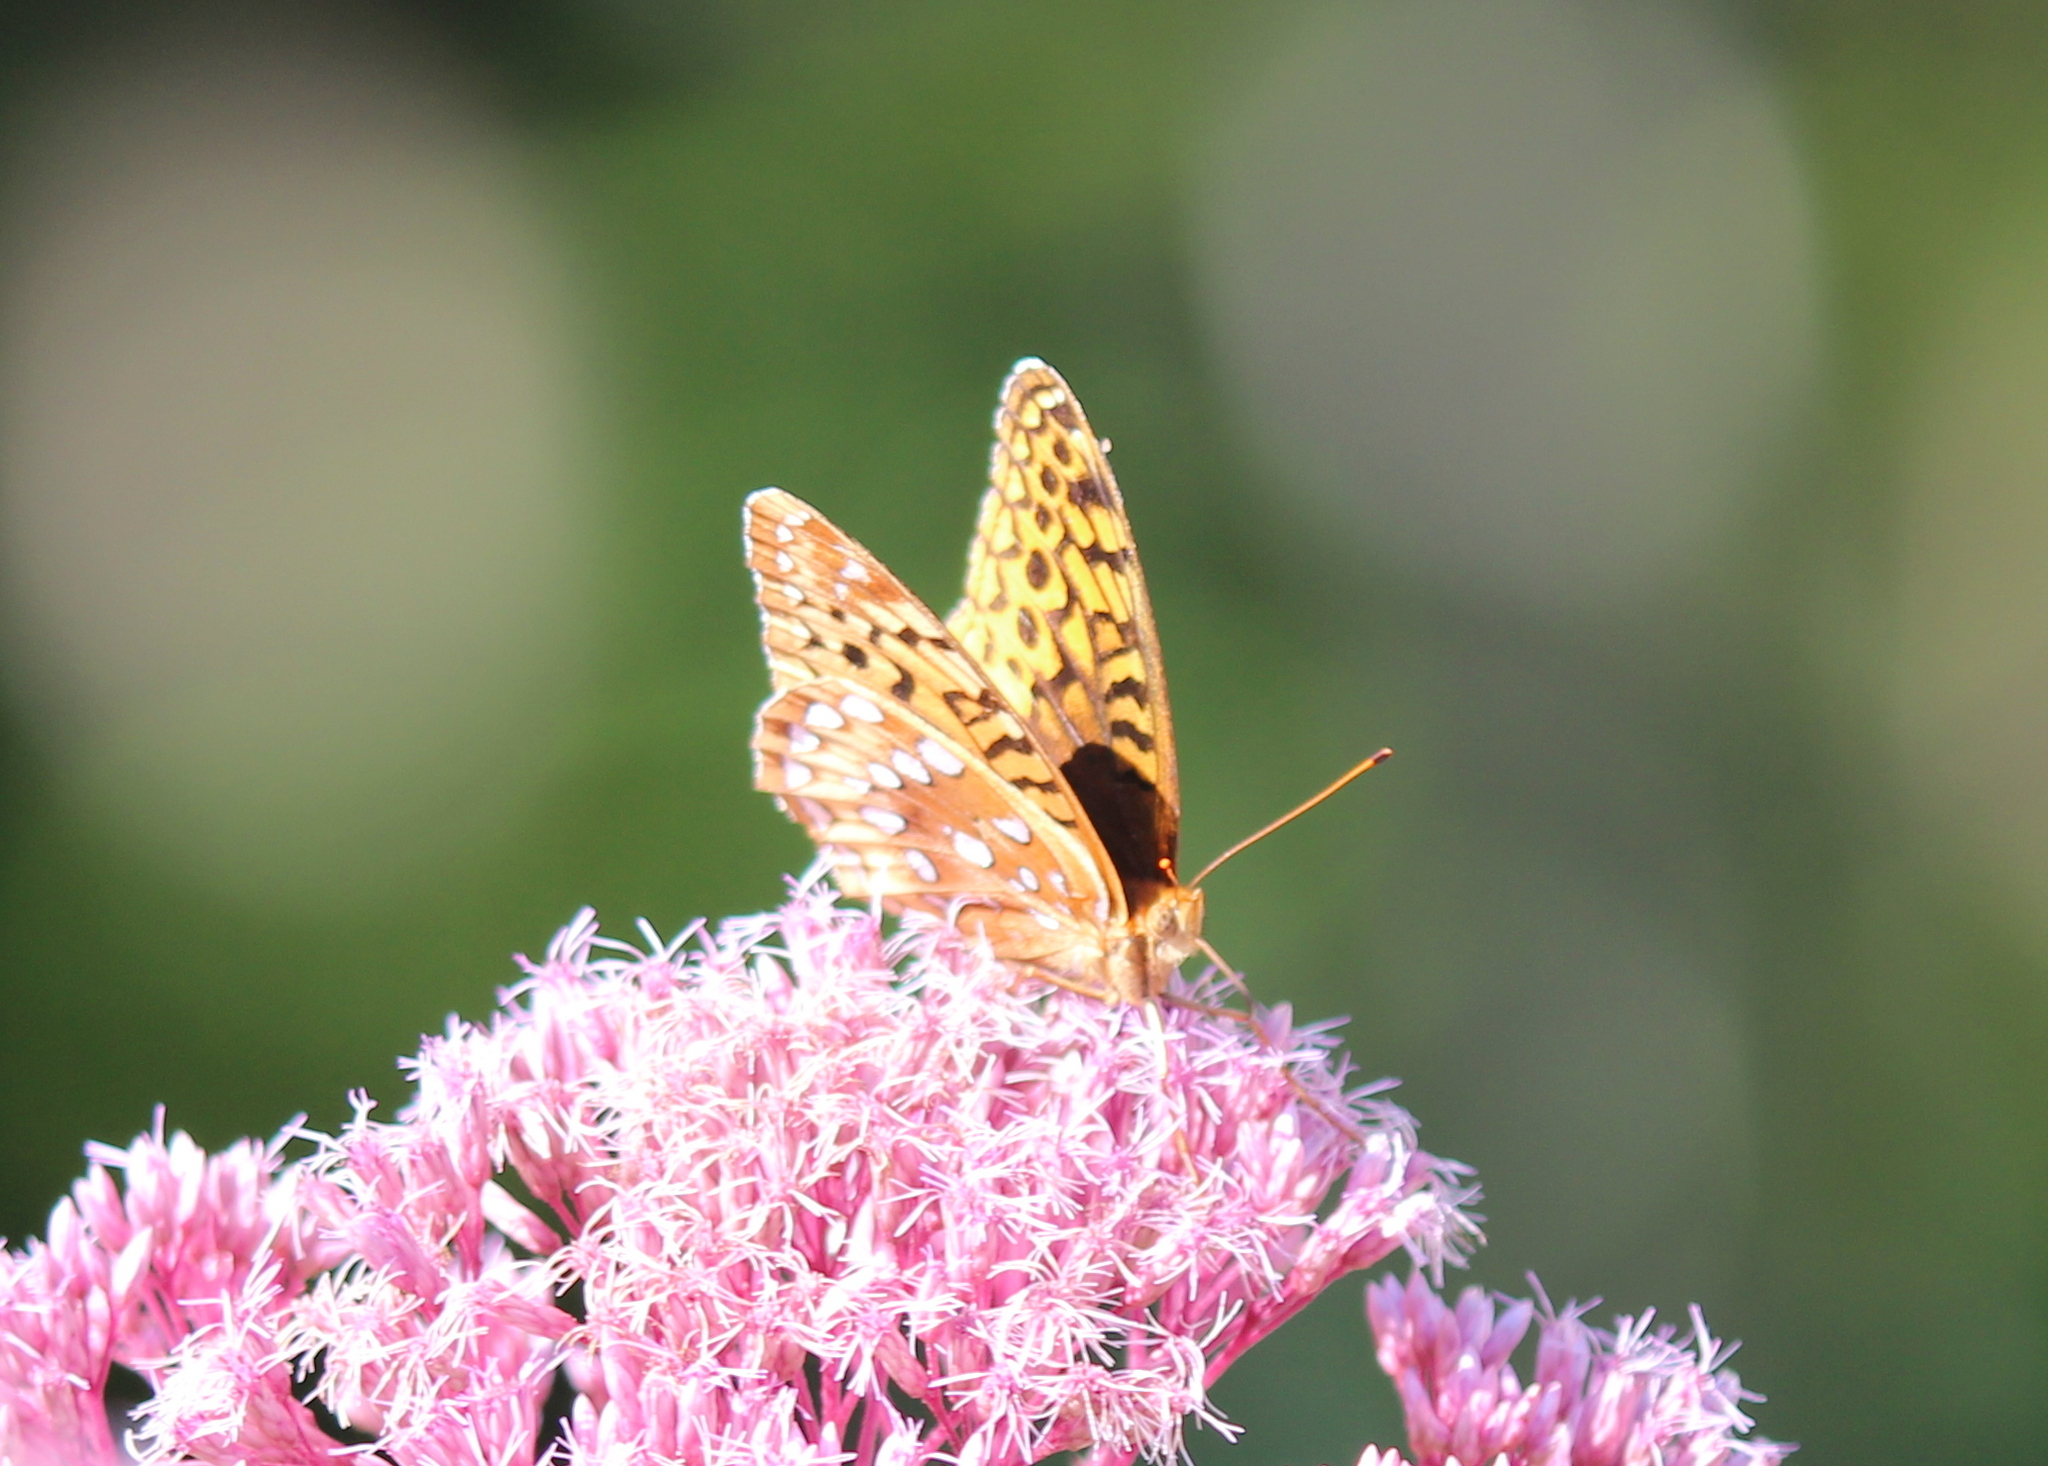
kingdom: Animalia
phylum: Arthropoda
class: Insecta
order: Lepidoptera
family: Nymphalidae
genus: Speyeria
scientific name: Speyeria cybele
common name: Great spangled fritillary
